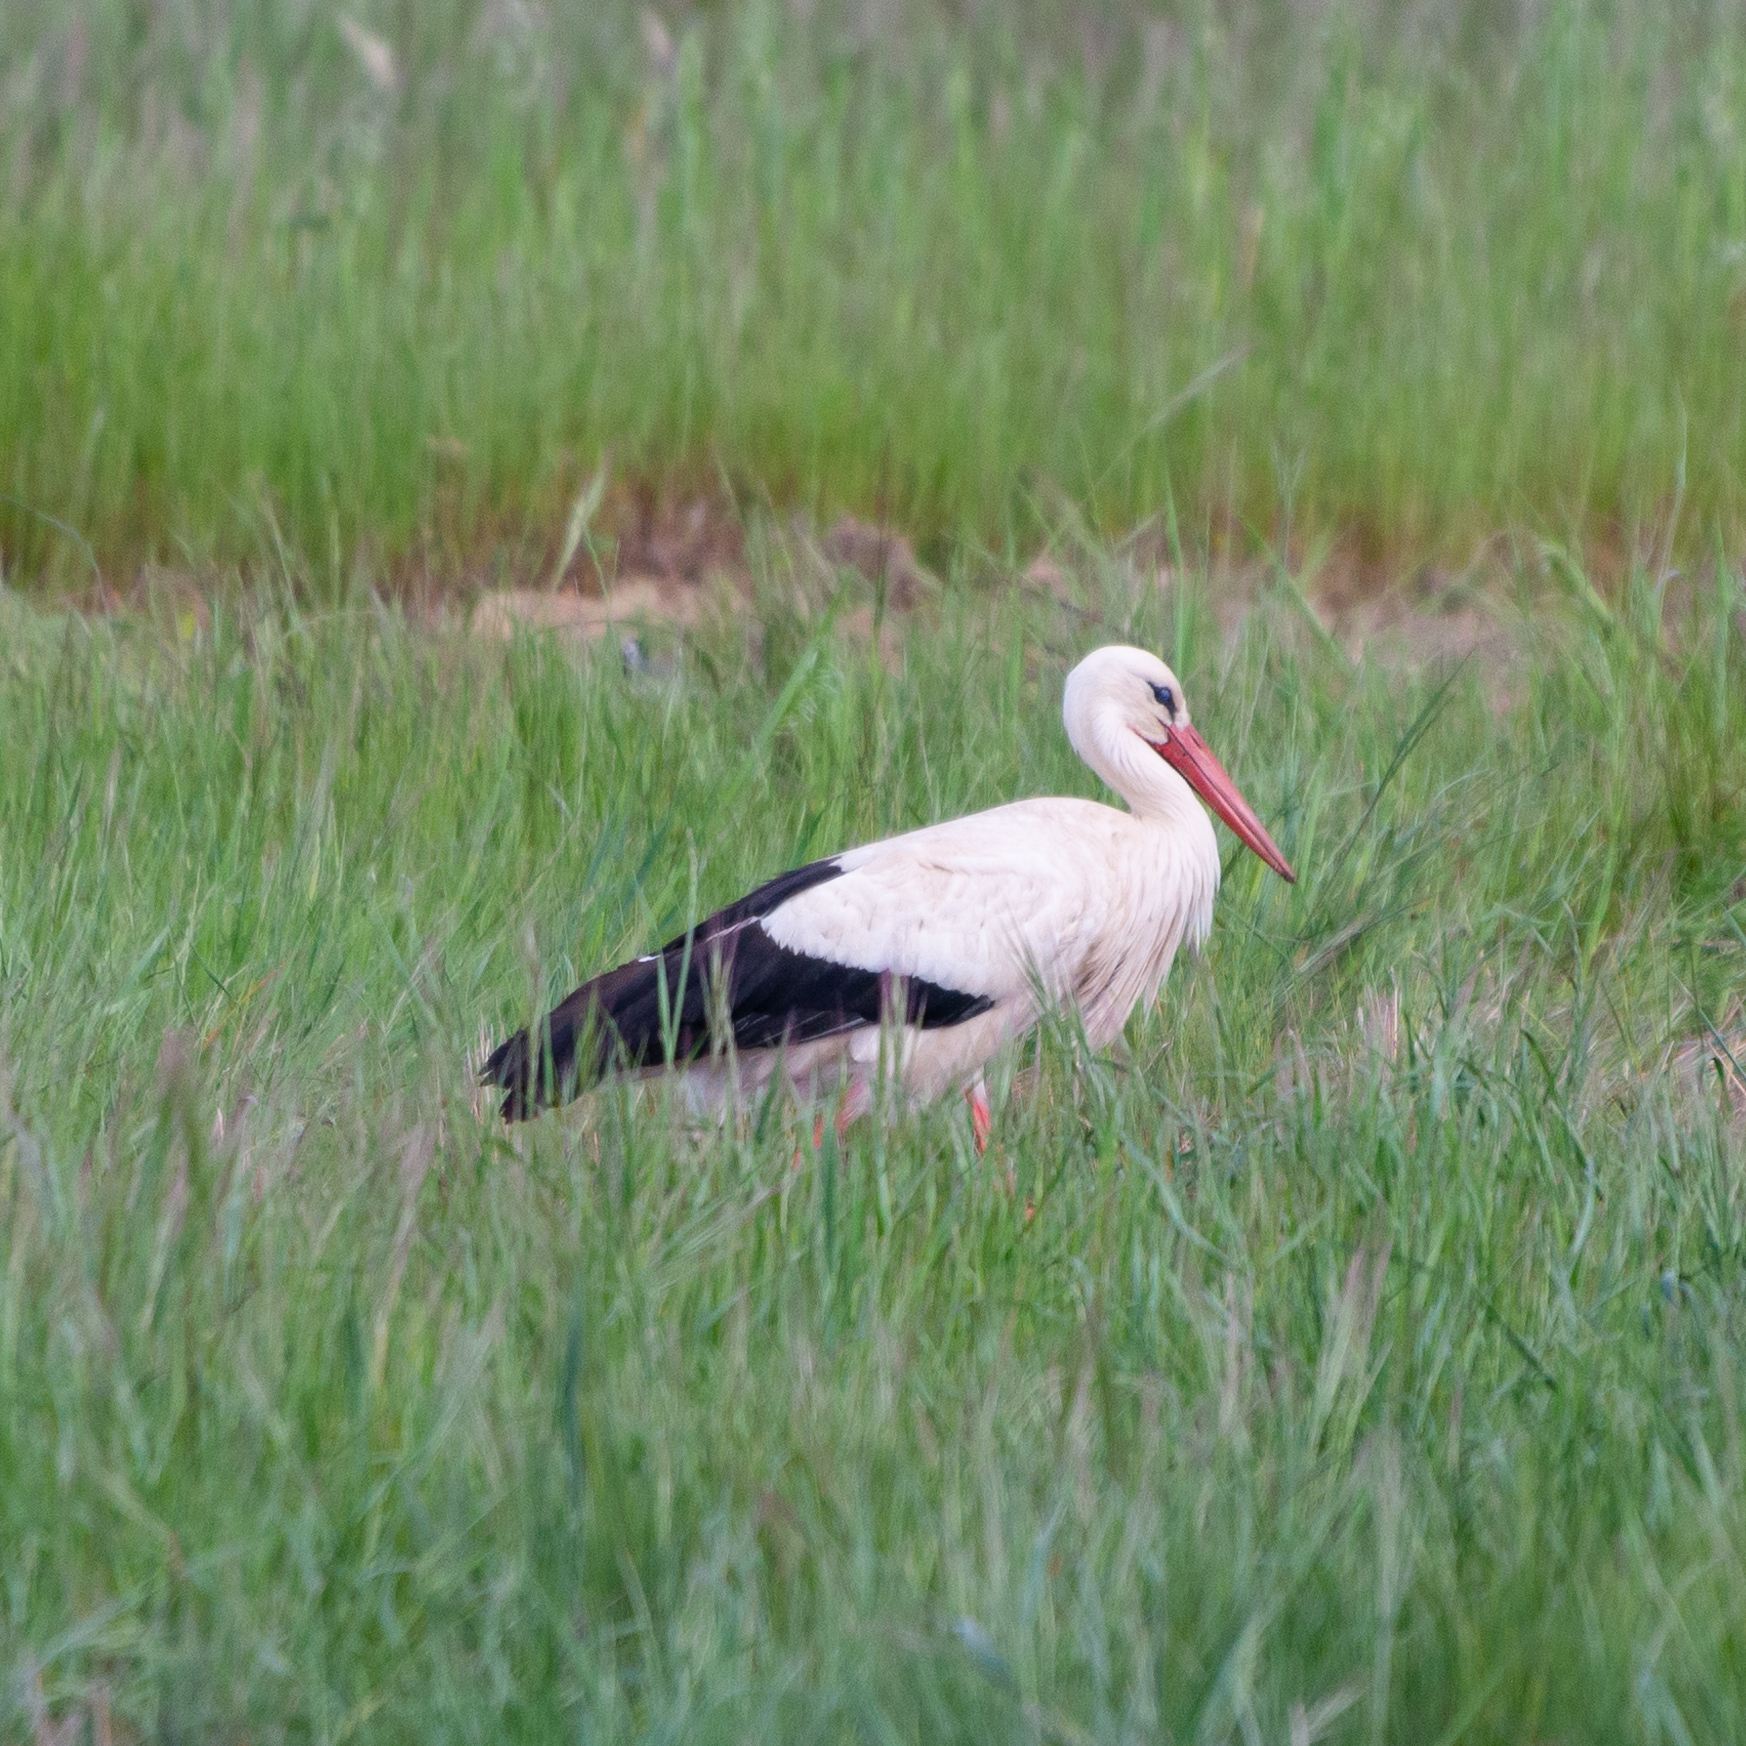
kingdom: Animalia
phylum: Chordata
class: Aves
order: Ciconiiformes
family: Ciconiidae
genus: Ciconia
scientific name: Ciconia ciconia
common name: White stork
